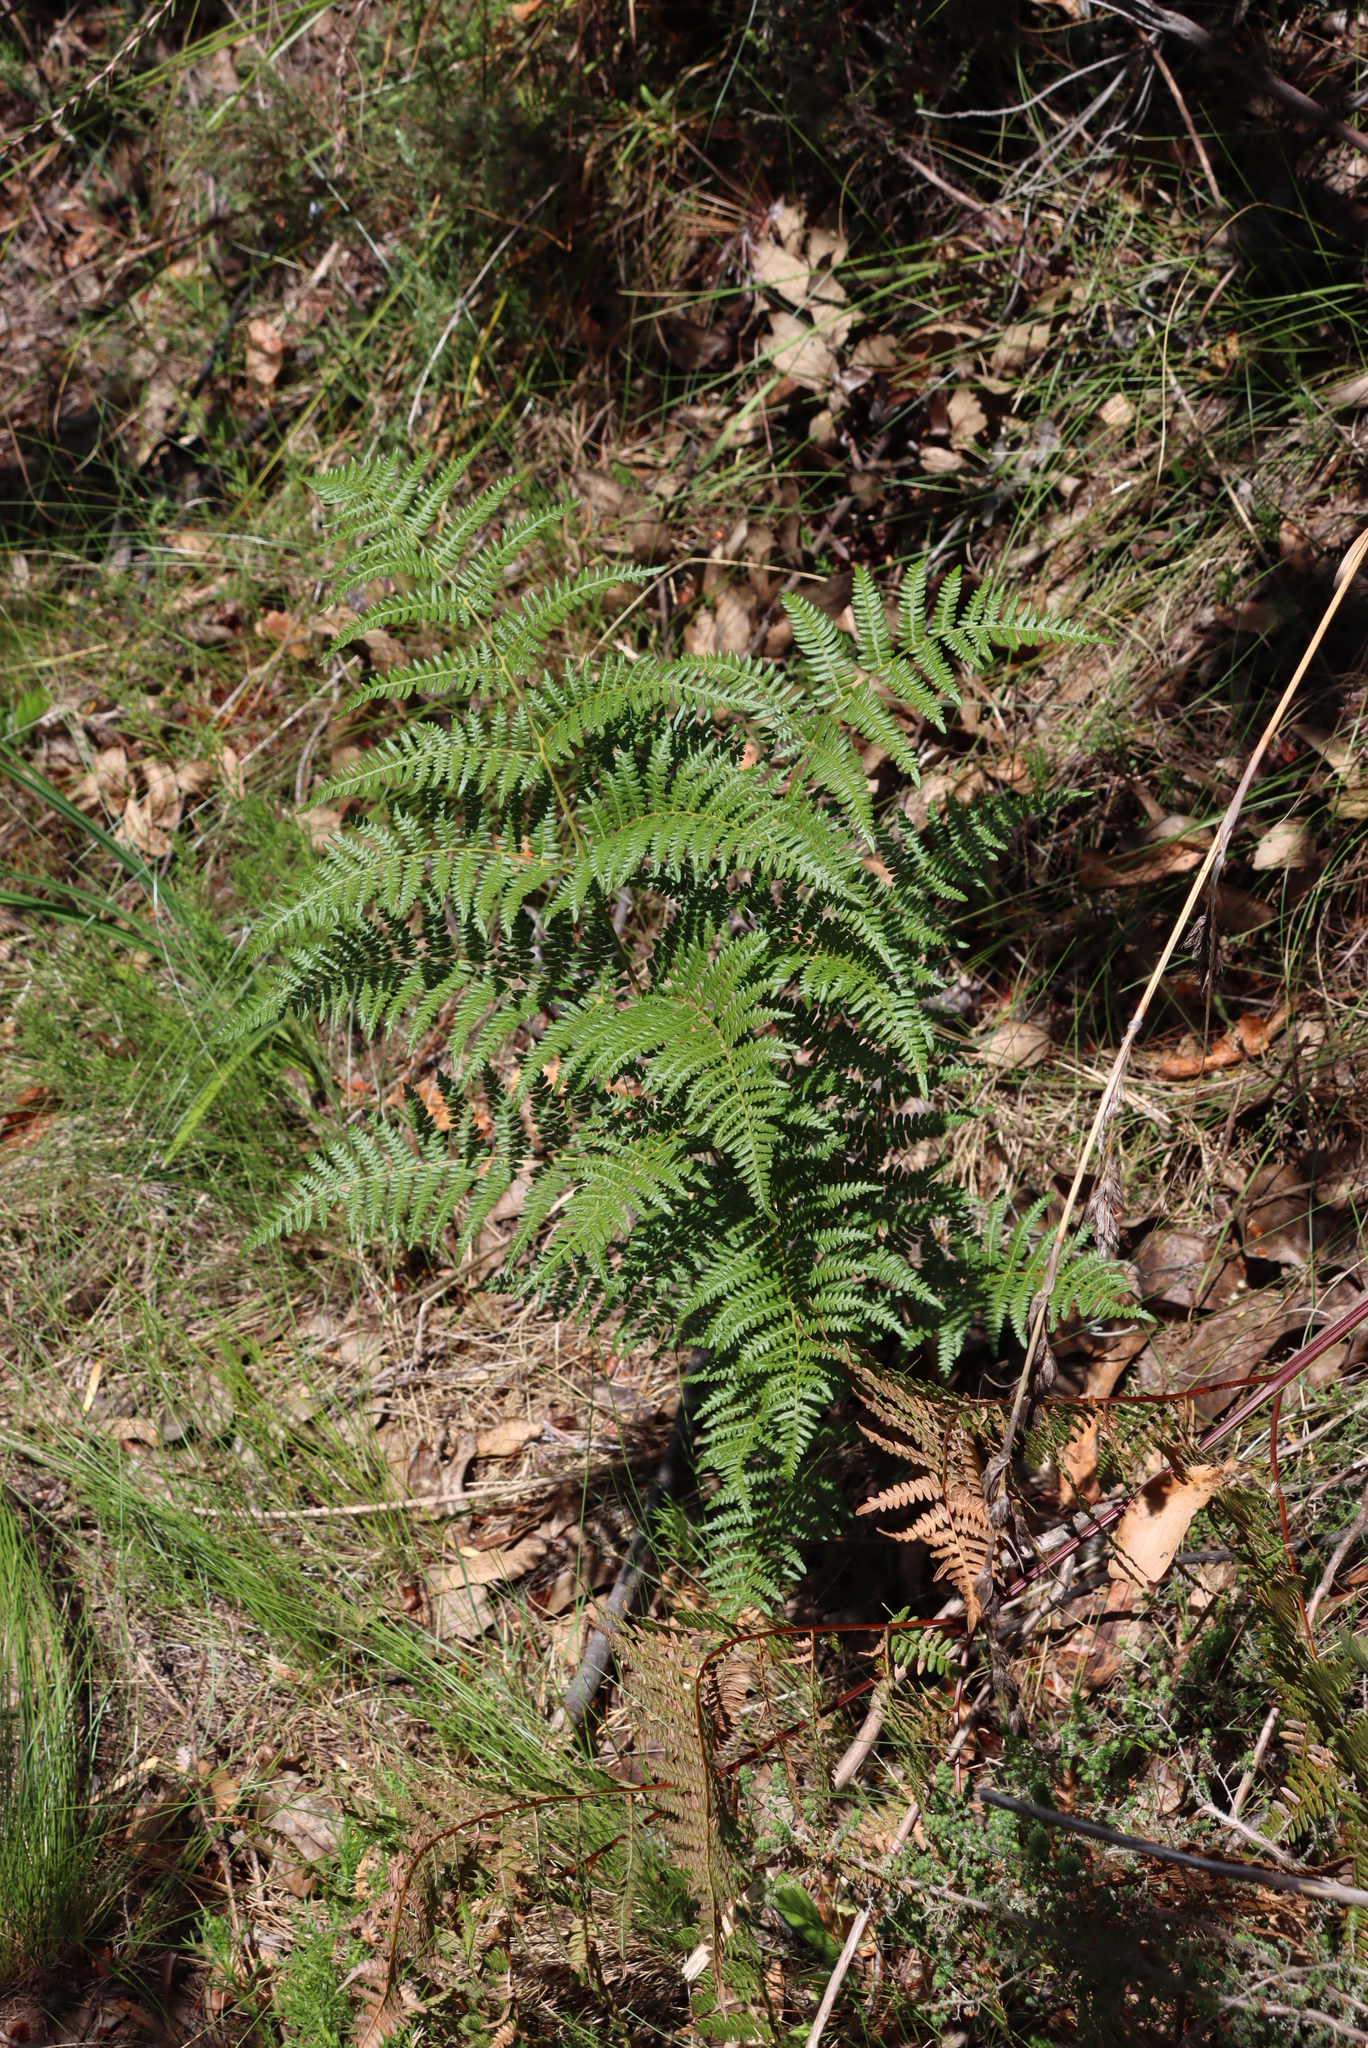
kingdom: Plantae
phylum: Tracheophyta
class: Polypodiopsida
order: Polypodiales
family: Dennstaedtiaceae
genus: Pteridium
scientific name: Pteridium aquilinum
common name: Bracken
